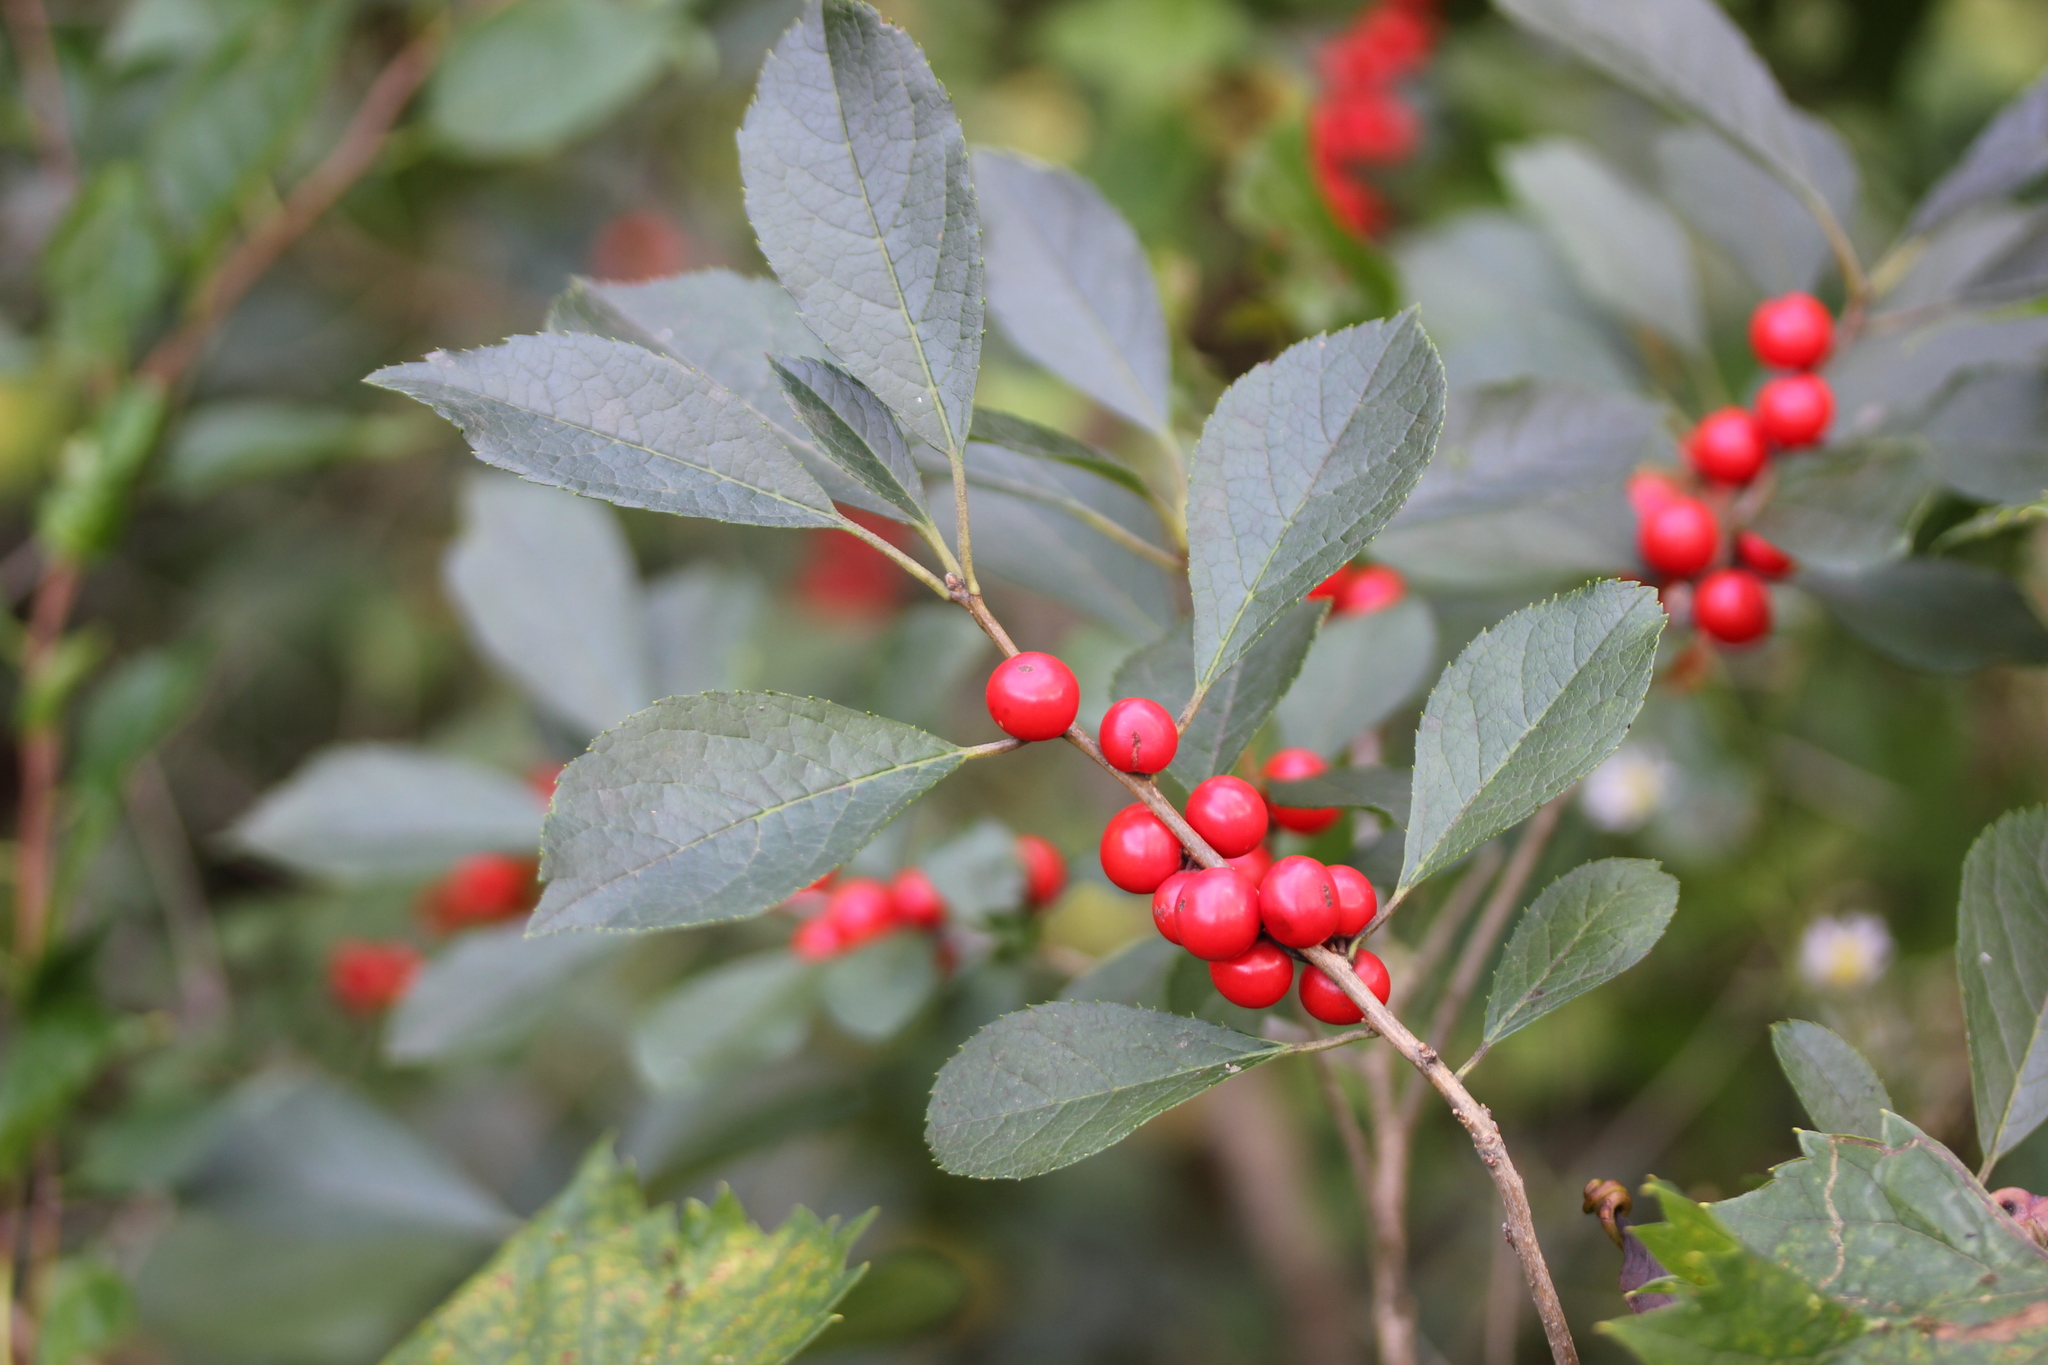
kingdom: Plantae
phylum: Tracheophyta
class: Magnoliopsida
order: Aquifoliales
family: Aquifoliaceae
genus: Ilex
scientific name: Ilex verticillata
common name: Virginia winterberry
